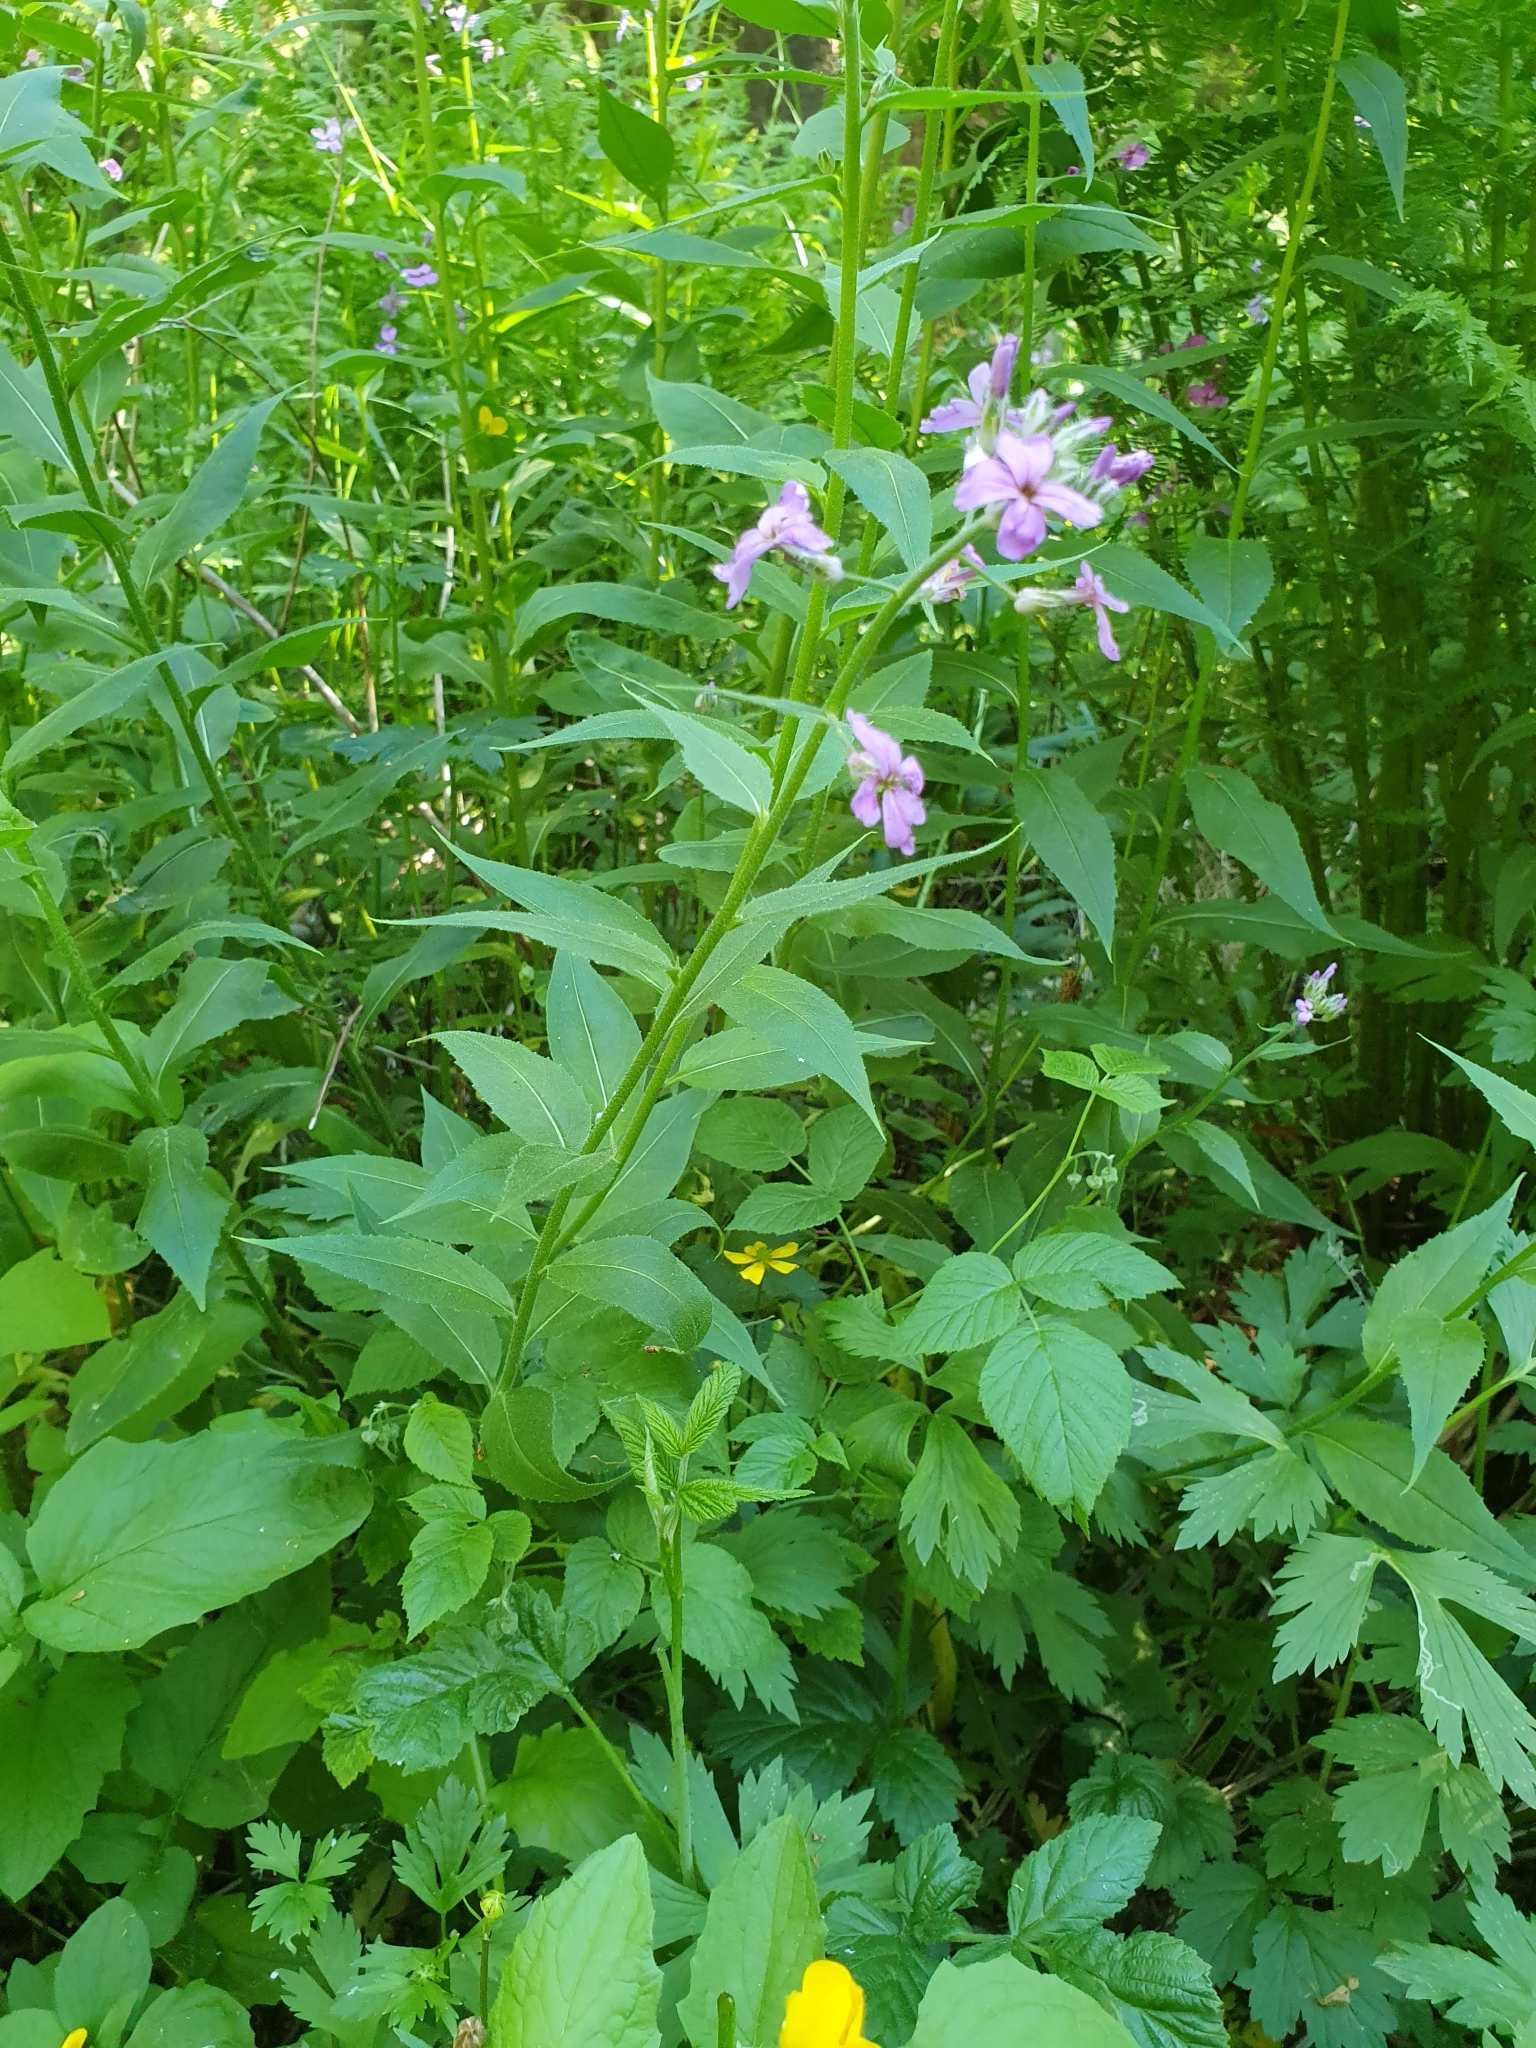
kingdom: Plantae
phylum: Tracheophyta
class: Magnoliopsida
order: Brassicales
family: Brassicaceae
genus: Hesperis
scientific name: Hesperis matronalis
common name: Dame's-violet
